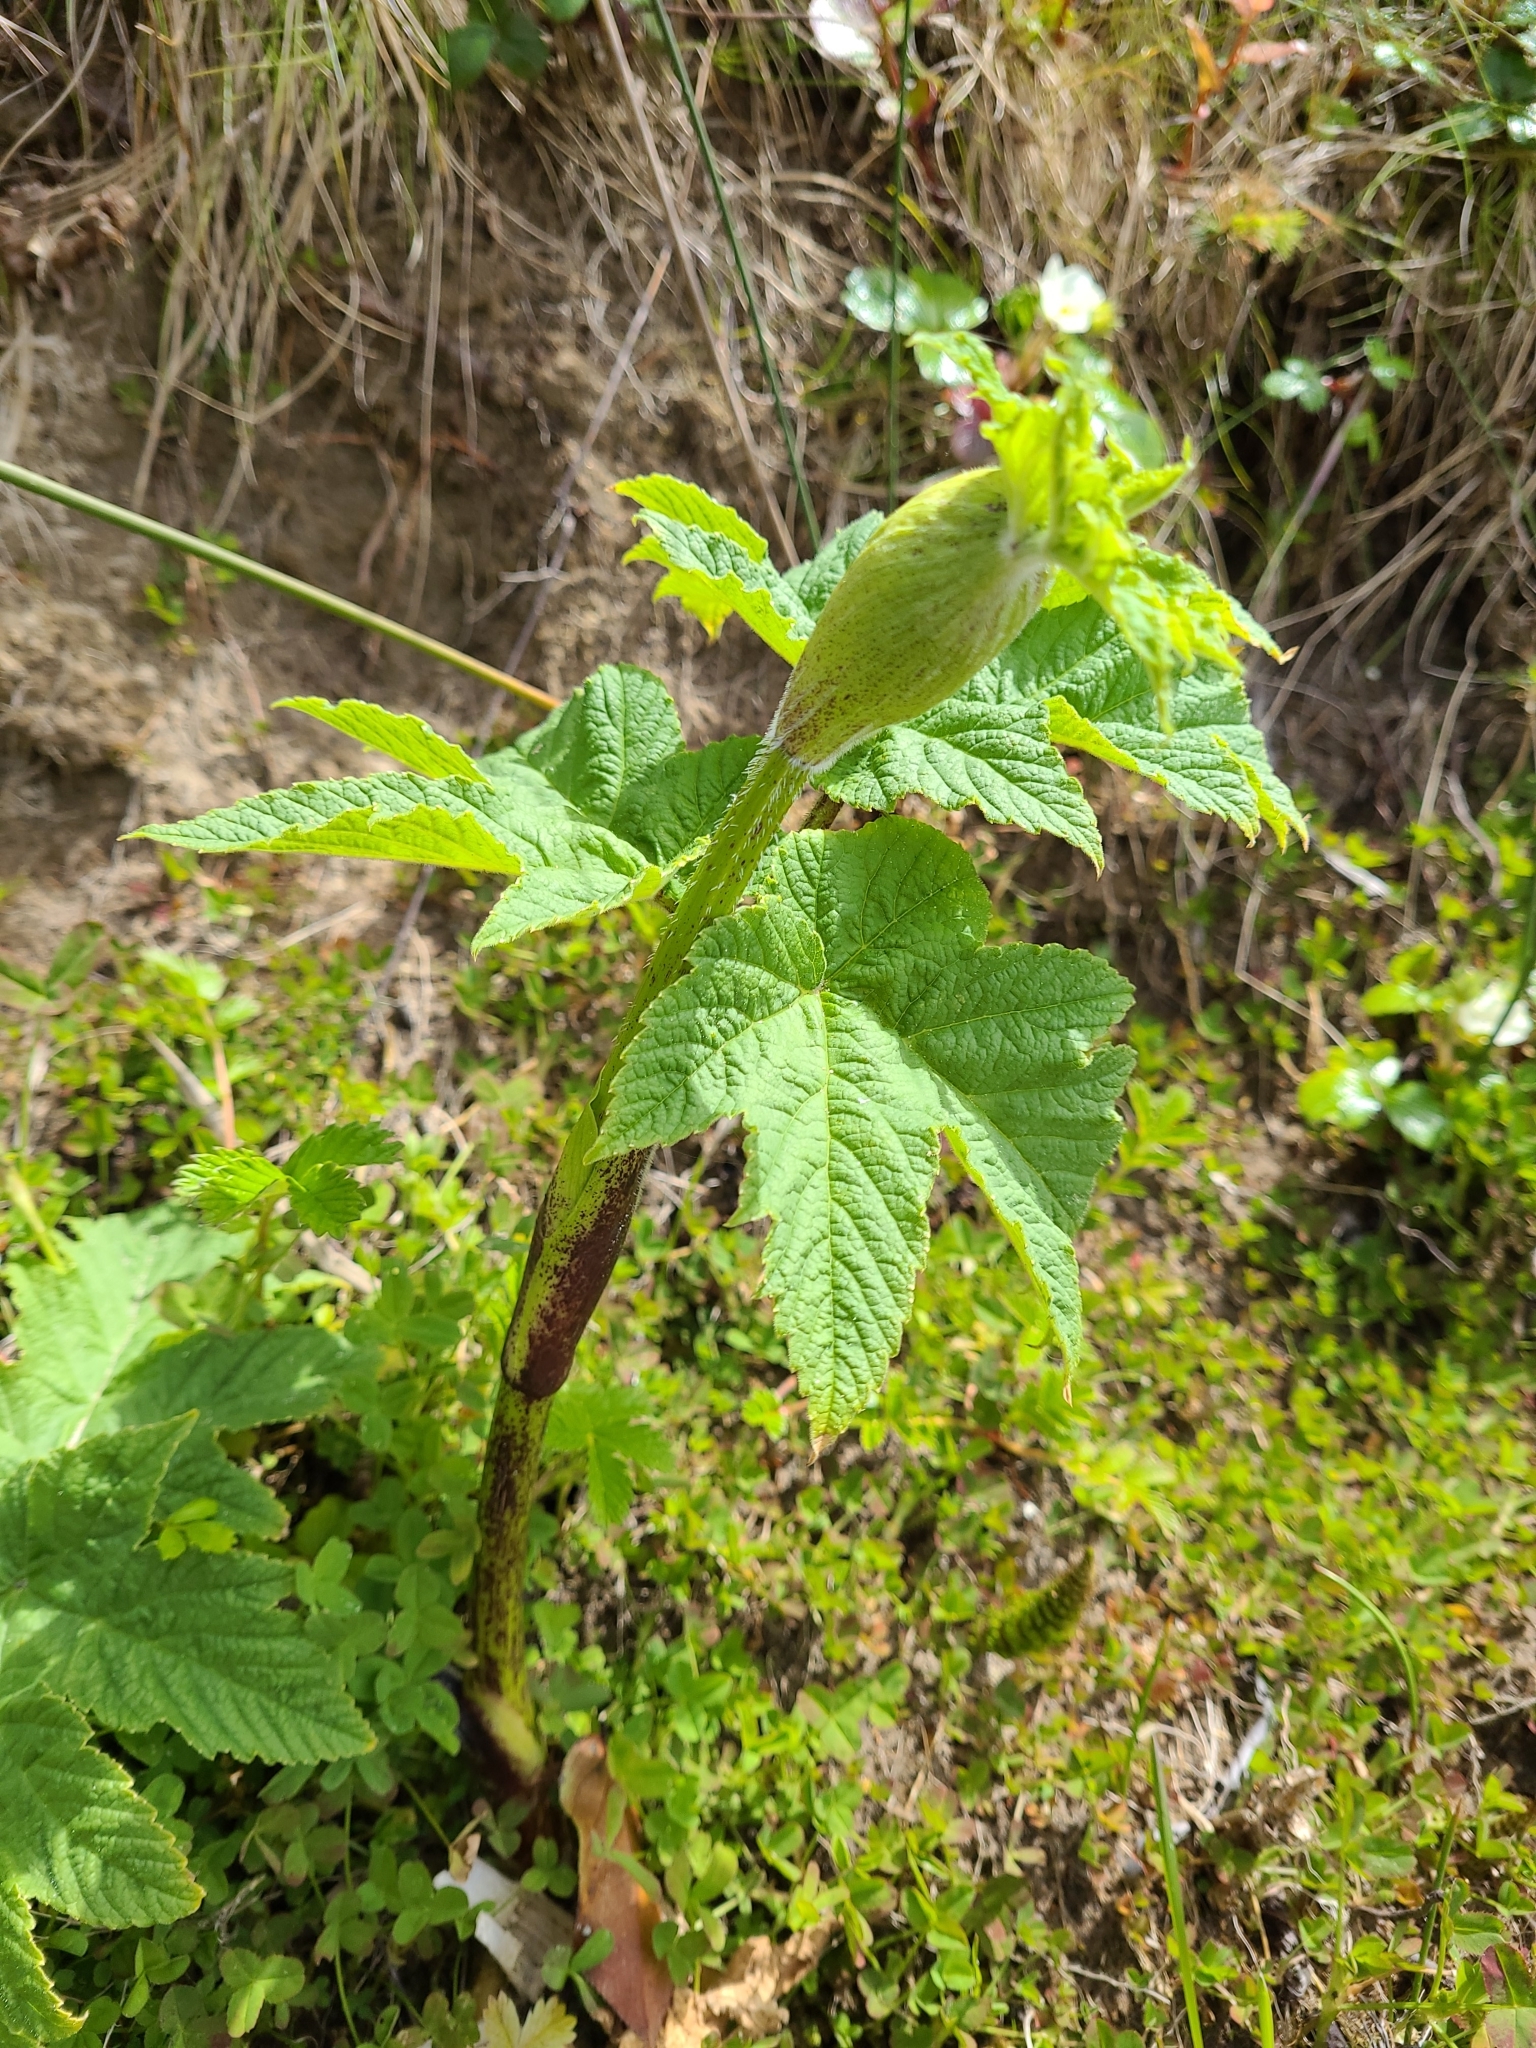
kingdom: Plantae
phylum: Tracheophyta
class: Magnoliopsida
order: Apiales
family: Apiaceae
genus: Heracleum
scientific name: Heracleum maximum
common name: American cow parsnip
